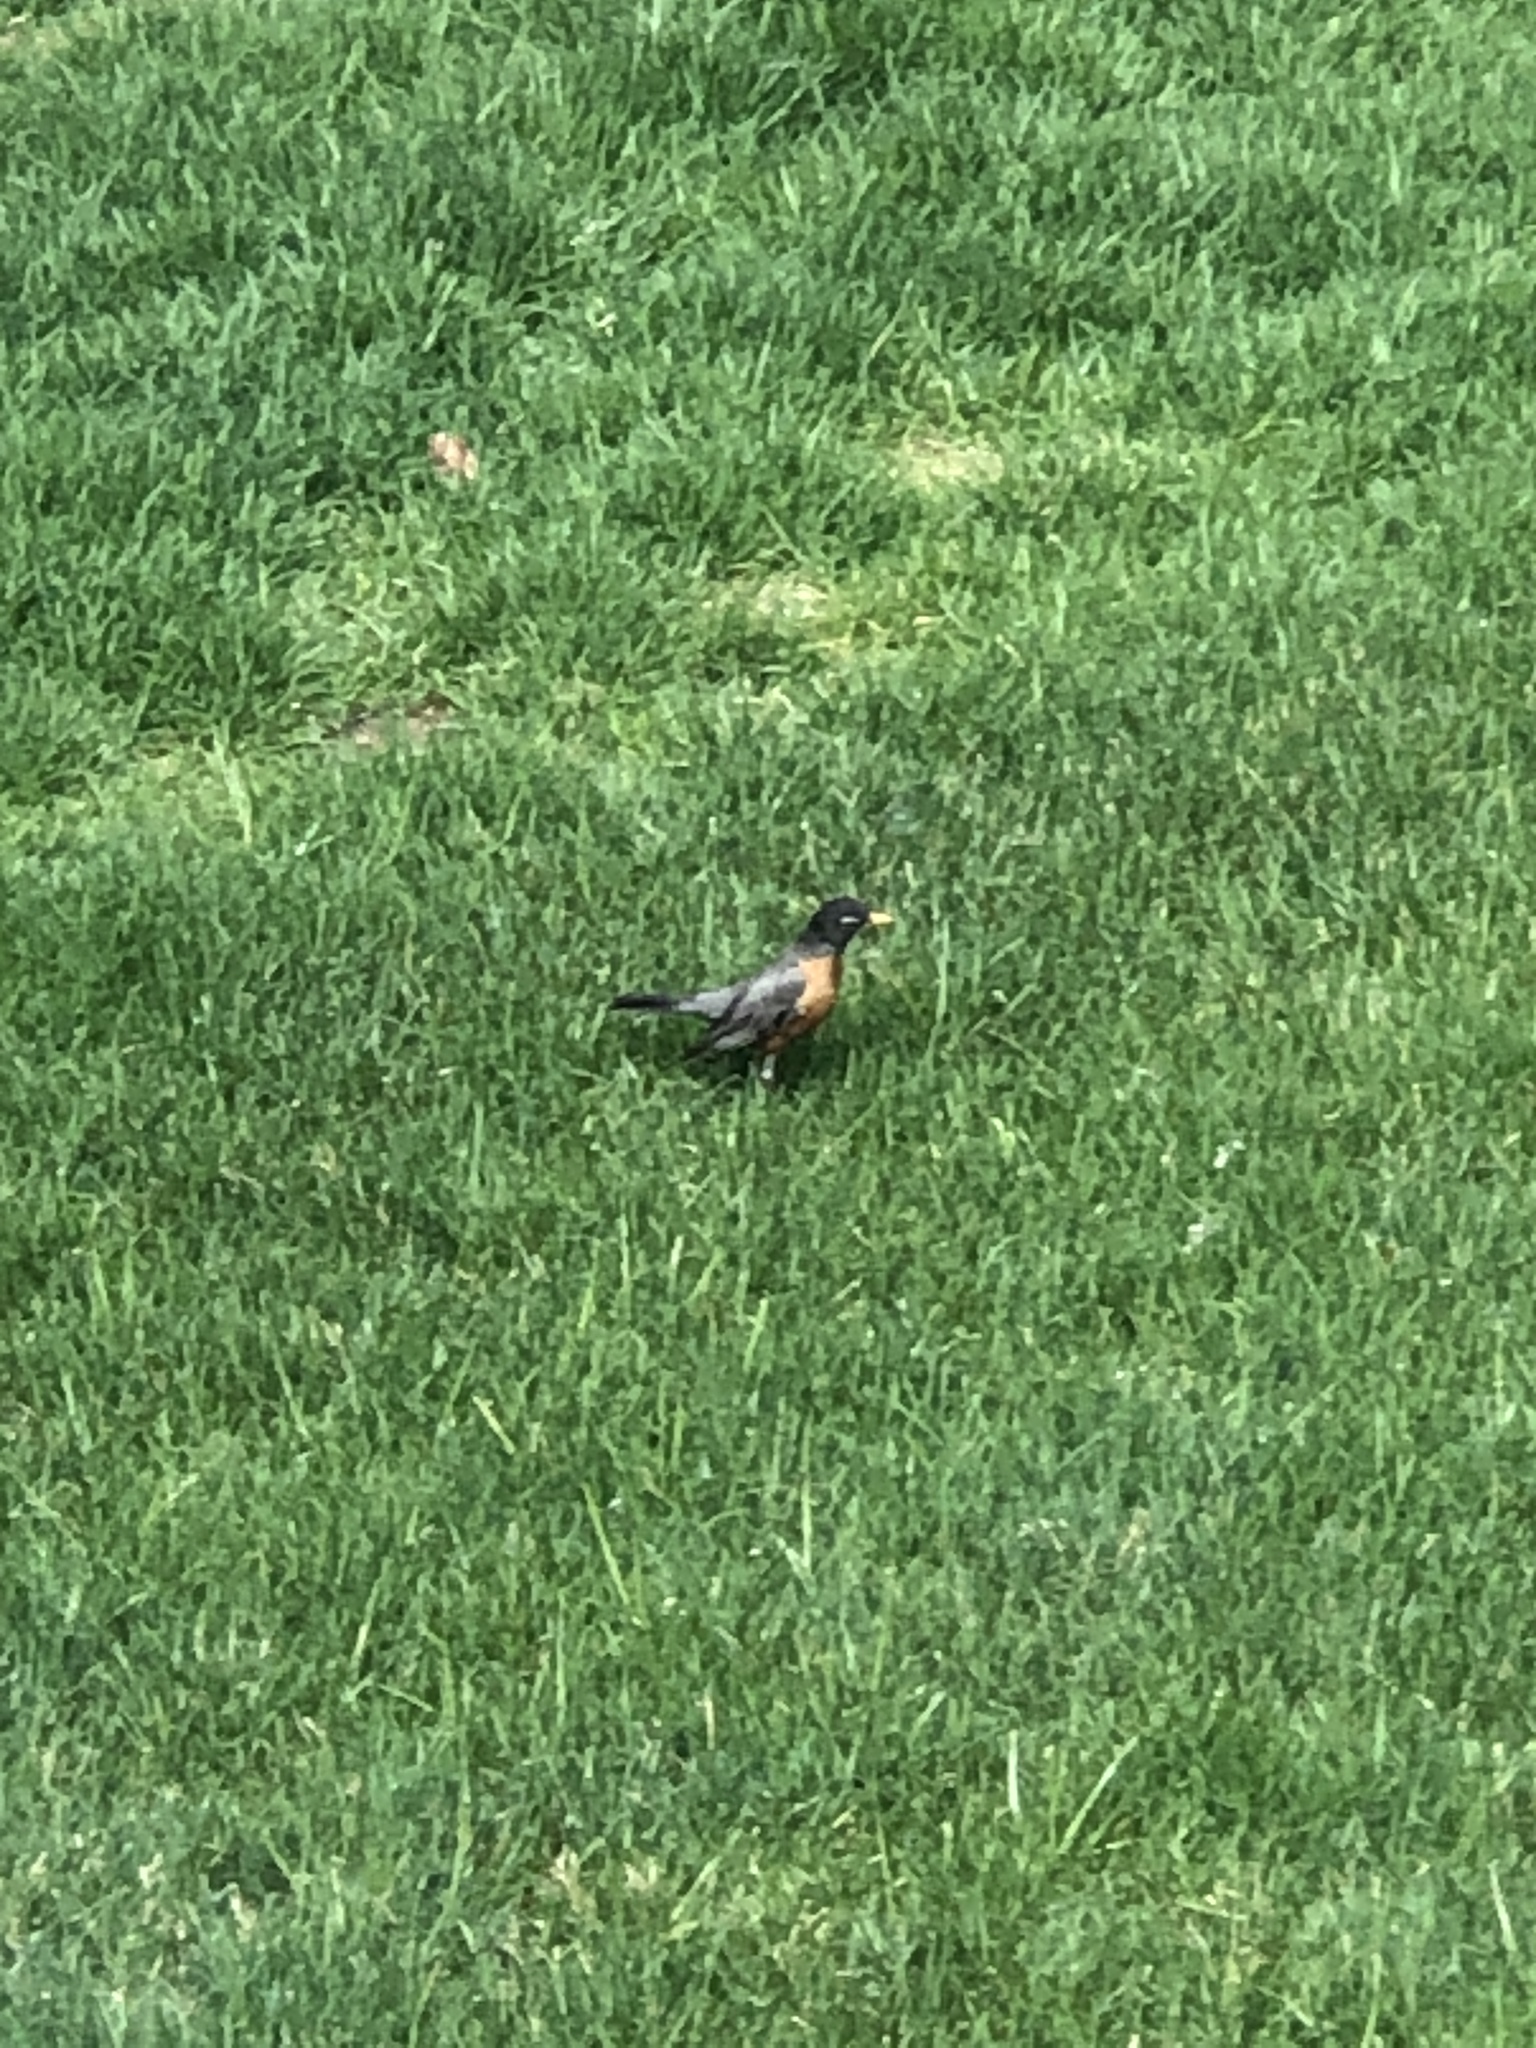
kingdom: Animalia
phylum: Chordata
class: Aves
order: Passeriformes
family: Turdidae
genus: Turdus
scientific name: Turdus migratorius
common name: American robin
